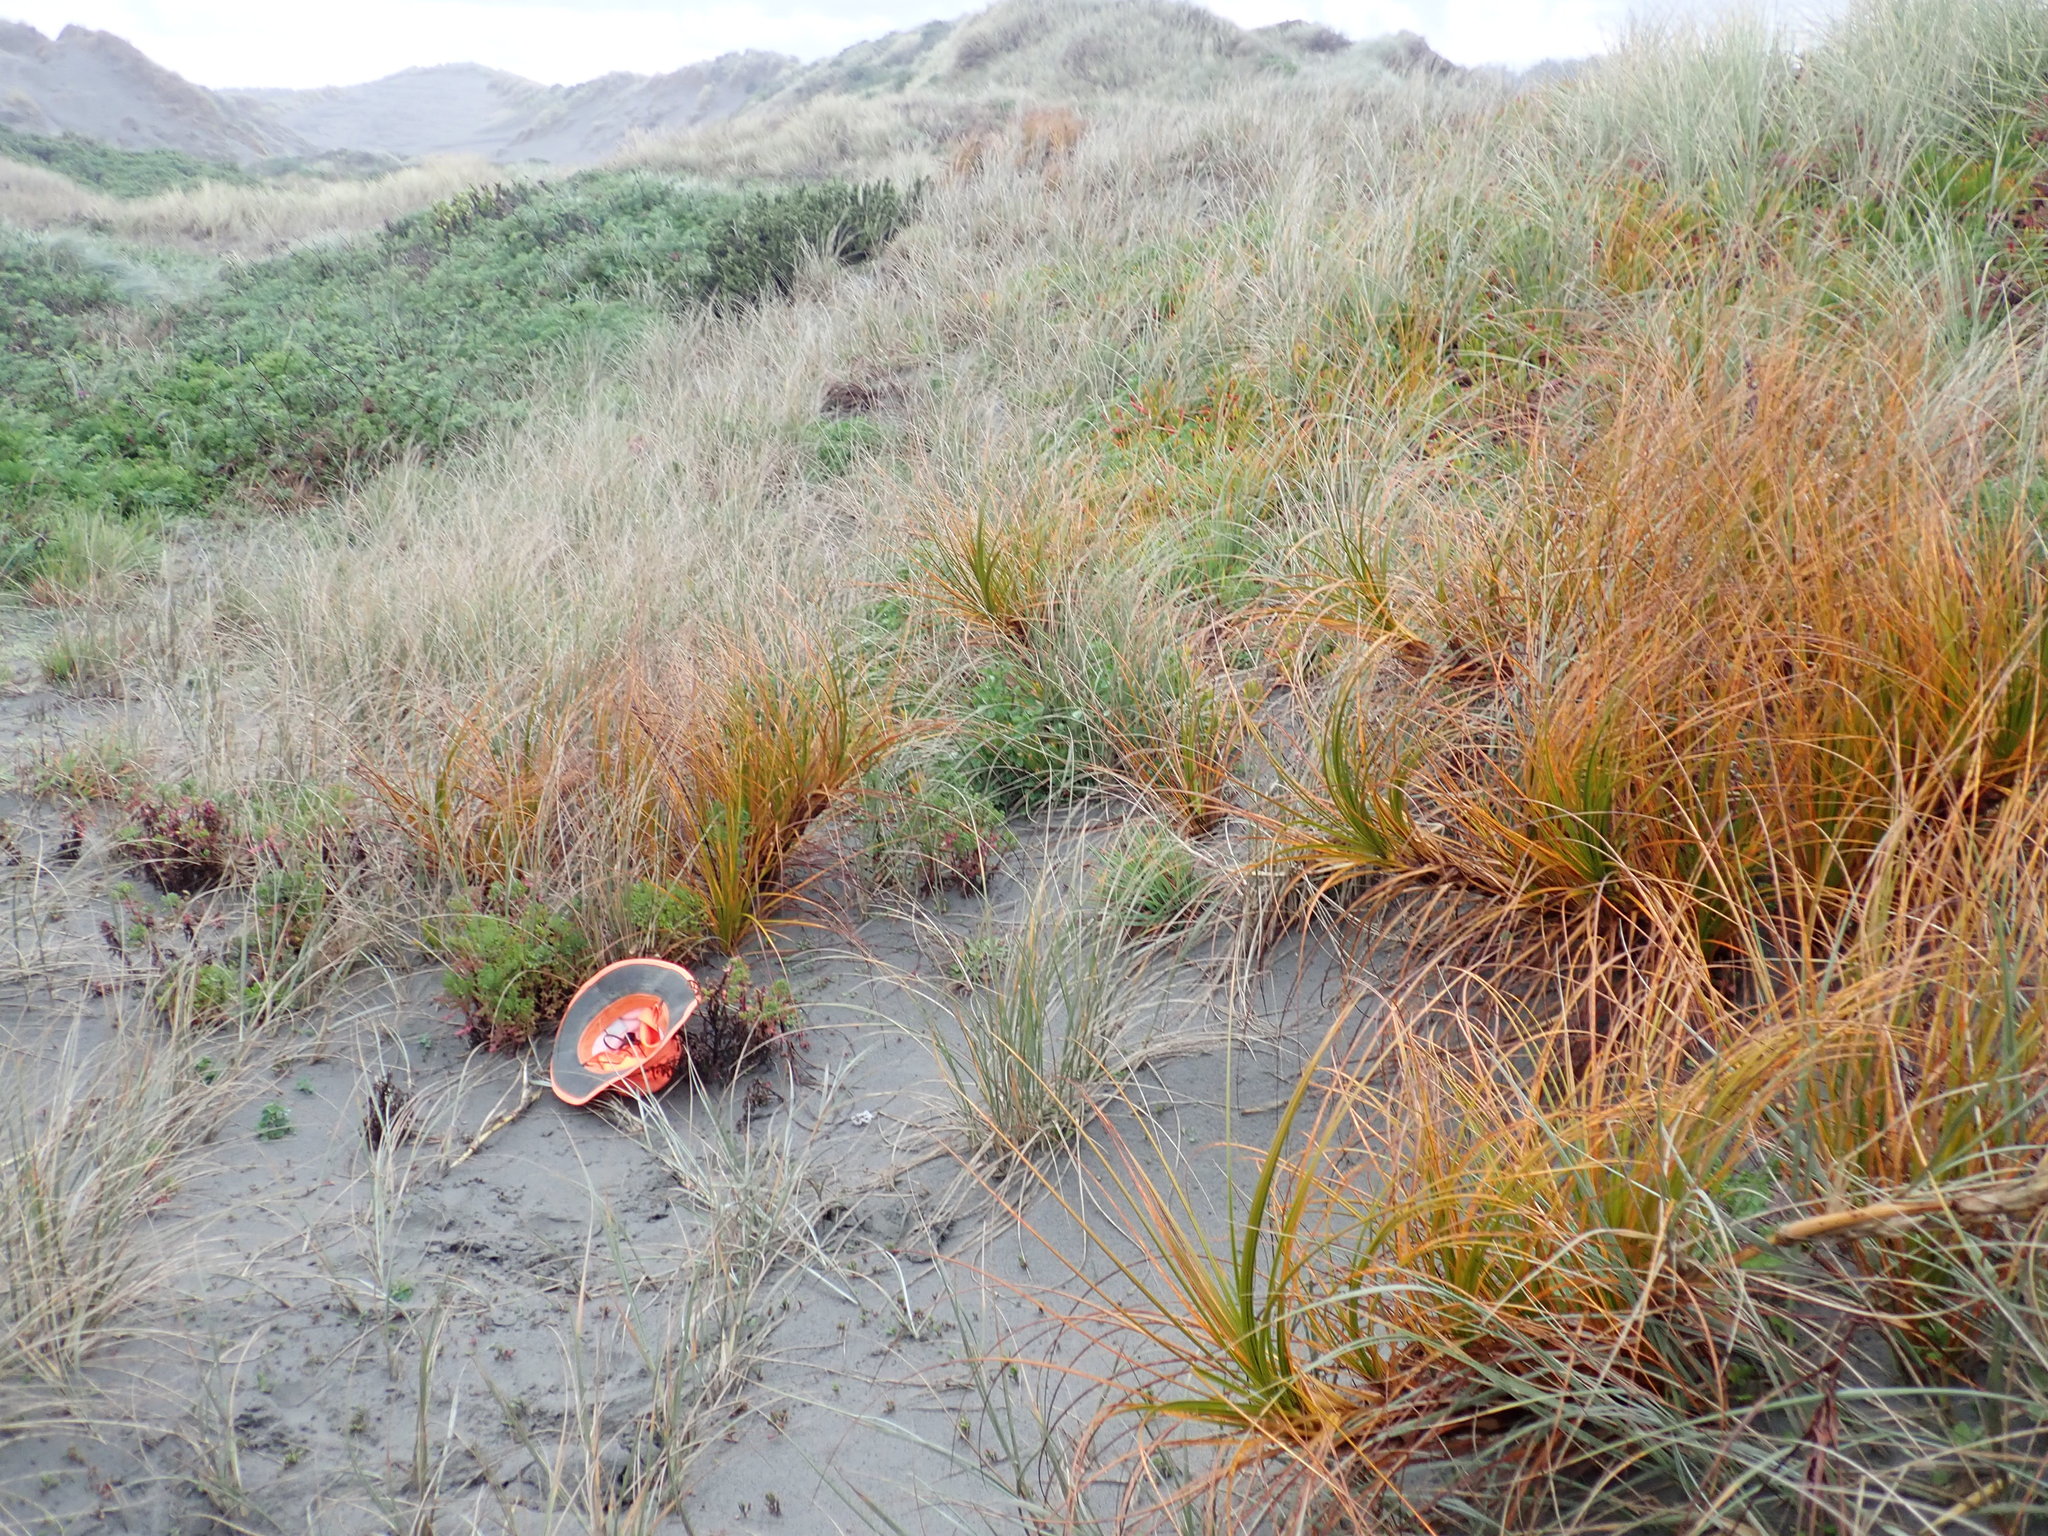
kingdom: Fungi
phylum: Basidiomycota
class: Agaricomycetes
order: Phallales
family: Phallaceae
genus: Ileodictyon
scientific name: Ileodictyon cibarium
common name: Basket fungus
